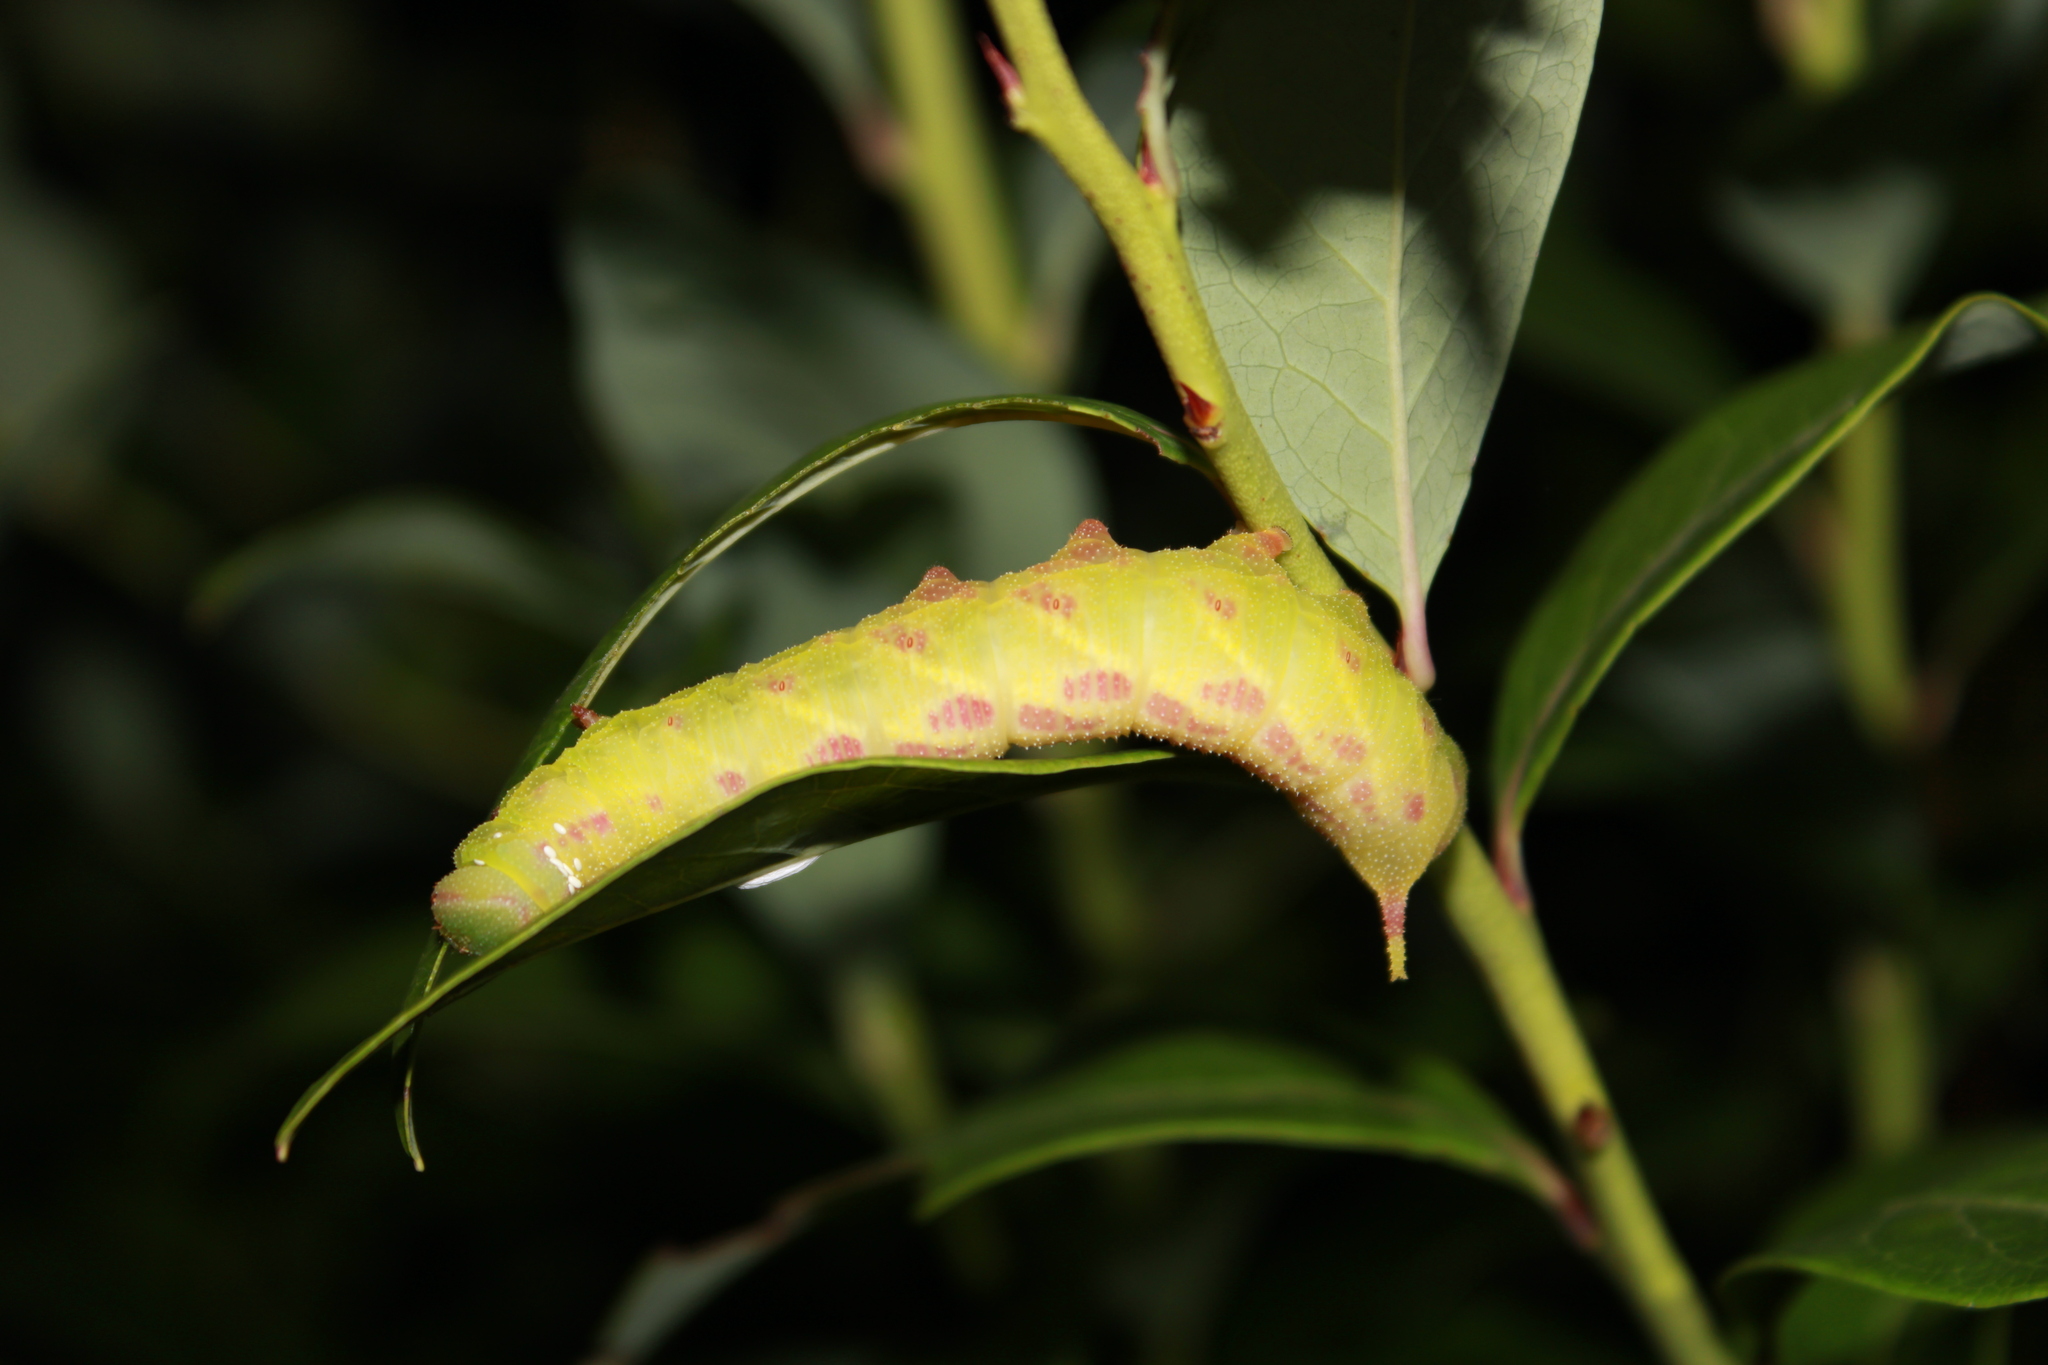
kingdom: Animalia
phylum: Arthropoda
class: Insecta
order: Lepidoptera
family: Sphingidae
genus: Paonias
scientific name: Paonias astylus
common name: Huckleberry sphinx
